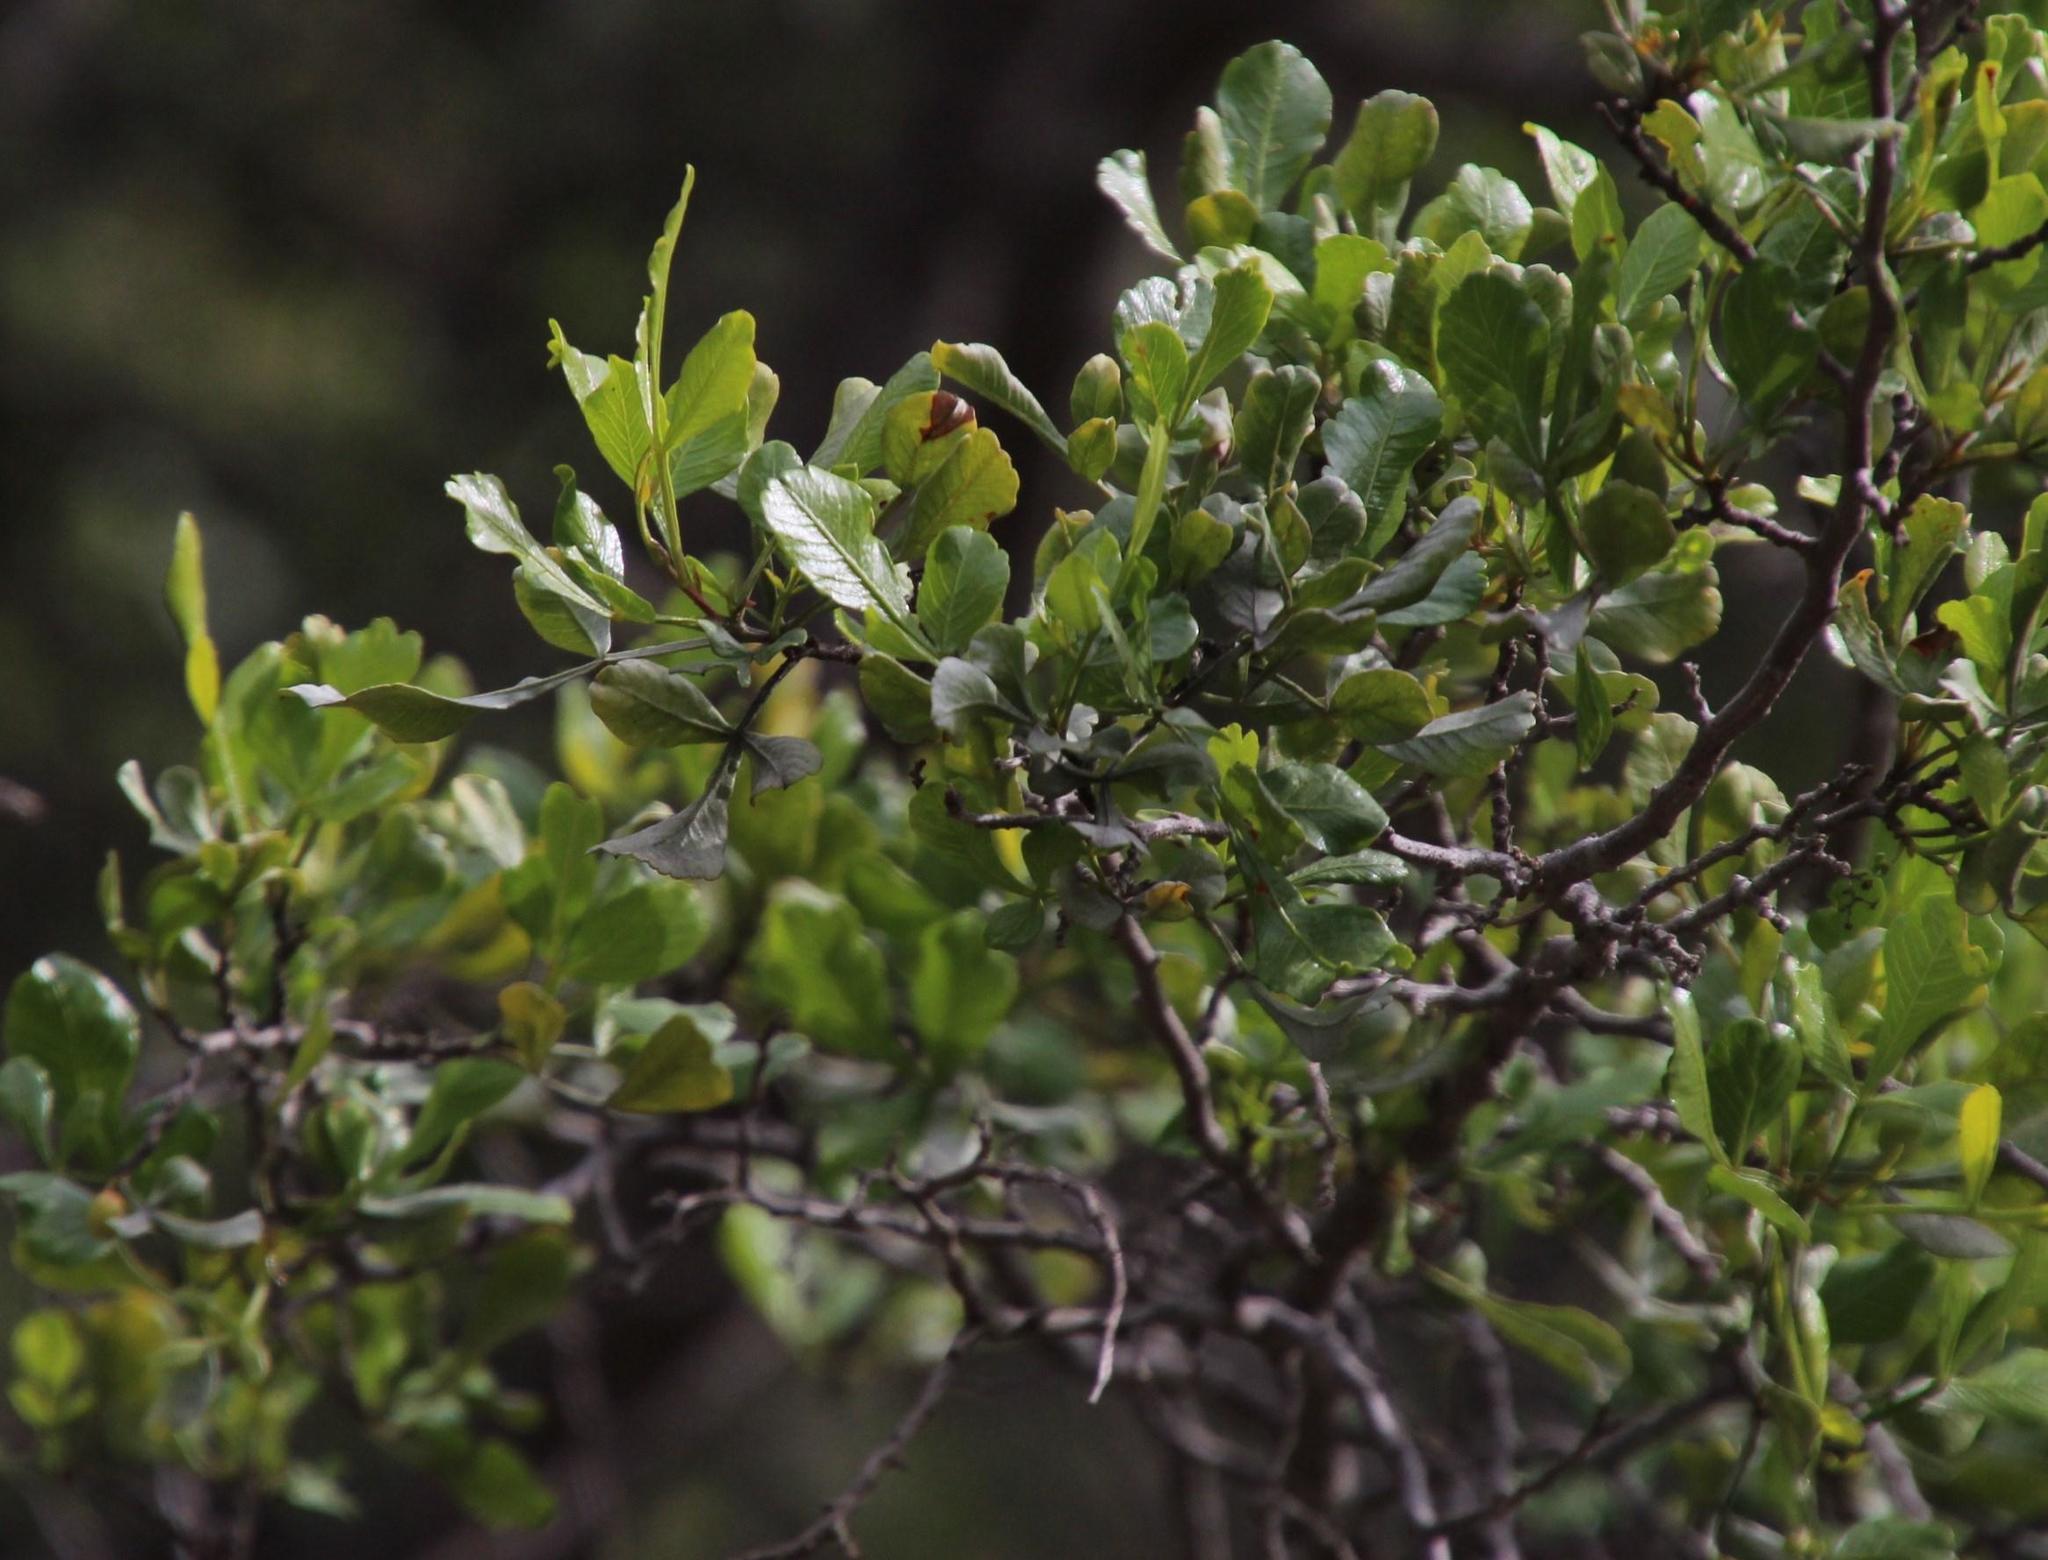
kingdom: Plantae
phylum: Tracheophyta
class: Magnoliopsida
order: Sapindales
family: Anacardiaceae
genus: Searsia
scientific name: Searsia undulata
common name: Namaqua kunibush
